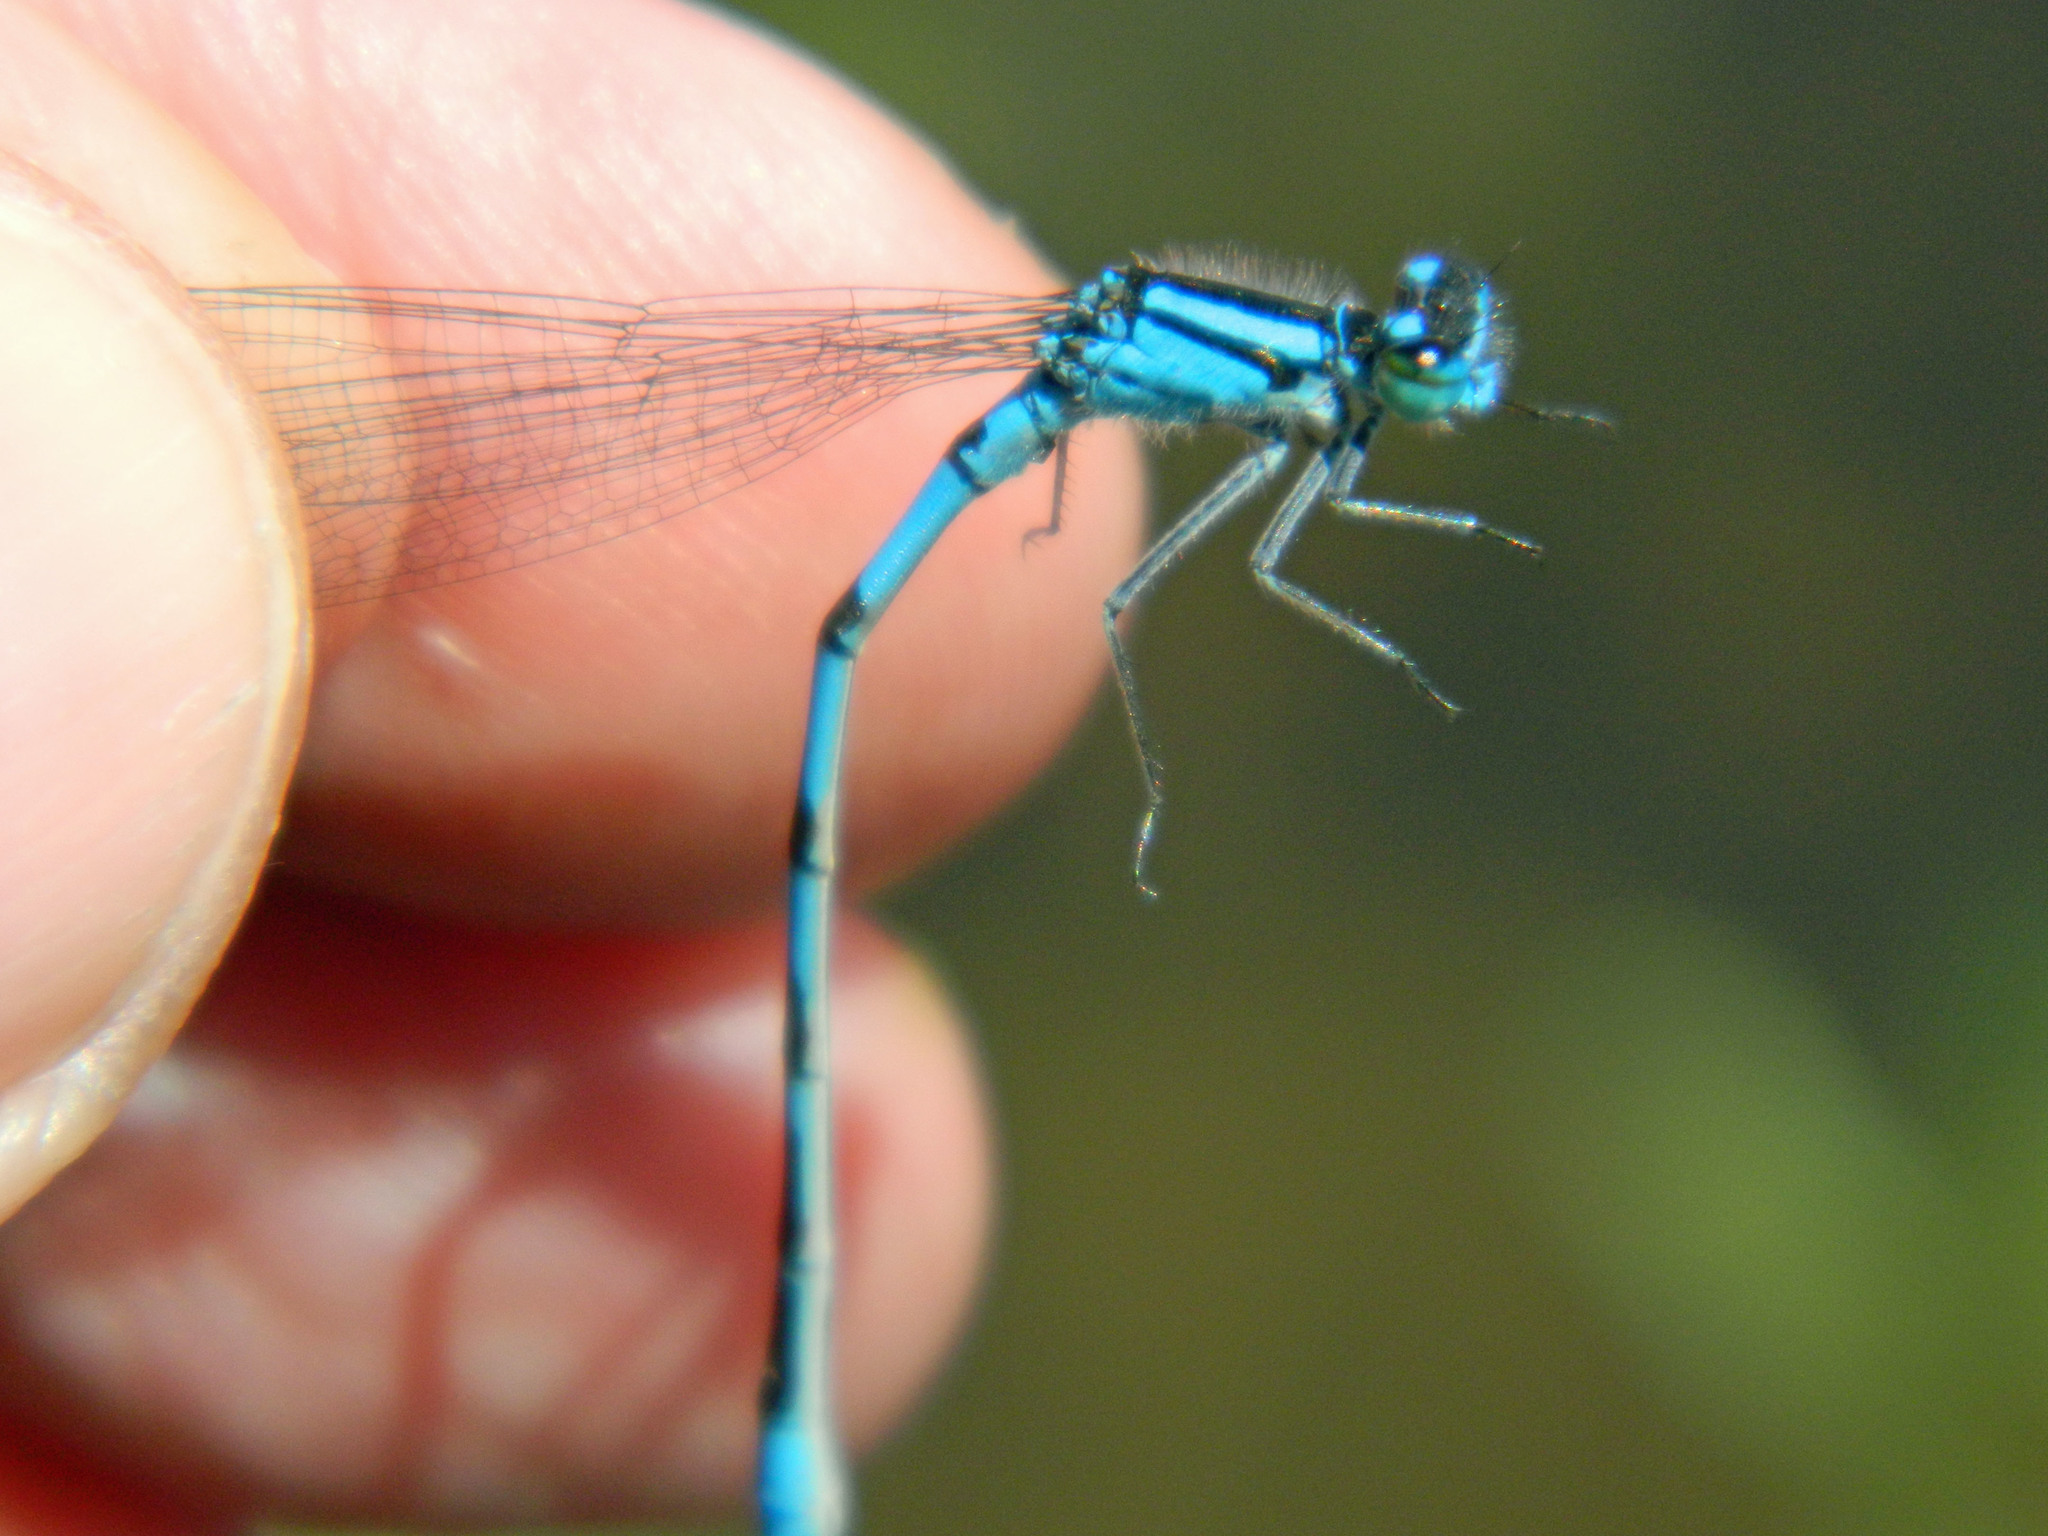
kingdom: Animalia
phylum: Arthropoda
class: Insecta
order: Odonata
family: Coenagrionidae
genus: Enallagma
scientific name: Enallagma hageni
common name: Hagen's bluet
